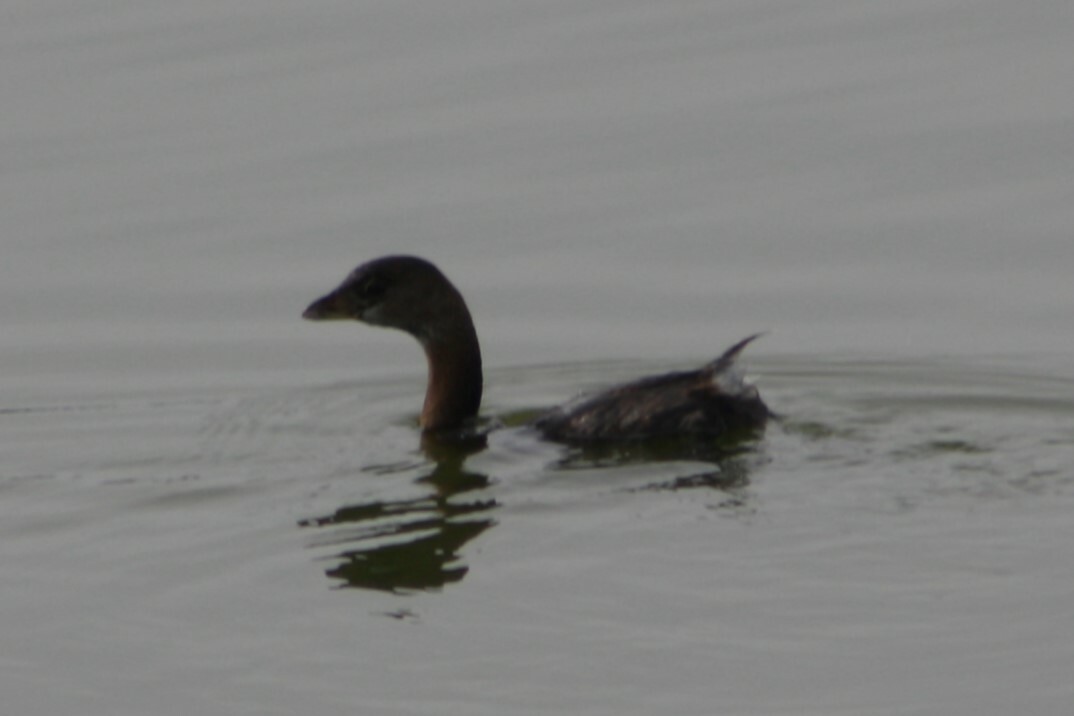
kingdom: Animalia
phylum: Chordata
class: Aves
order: Podicipediformes
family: Podicipedidae
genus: Podilymbus
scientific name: Podilymbus podiceps
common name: Pied-billed grebe
